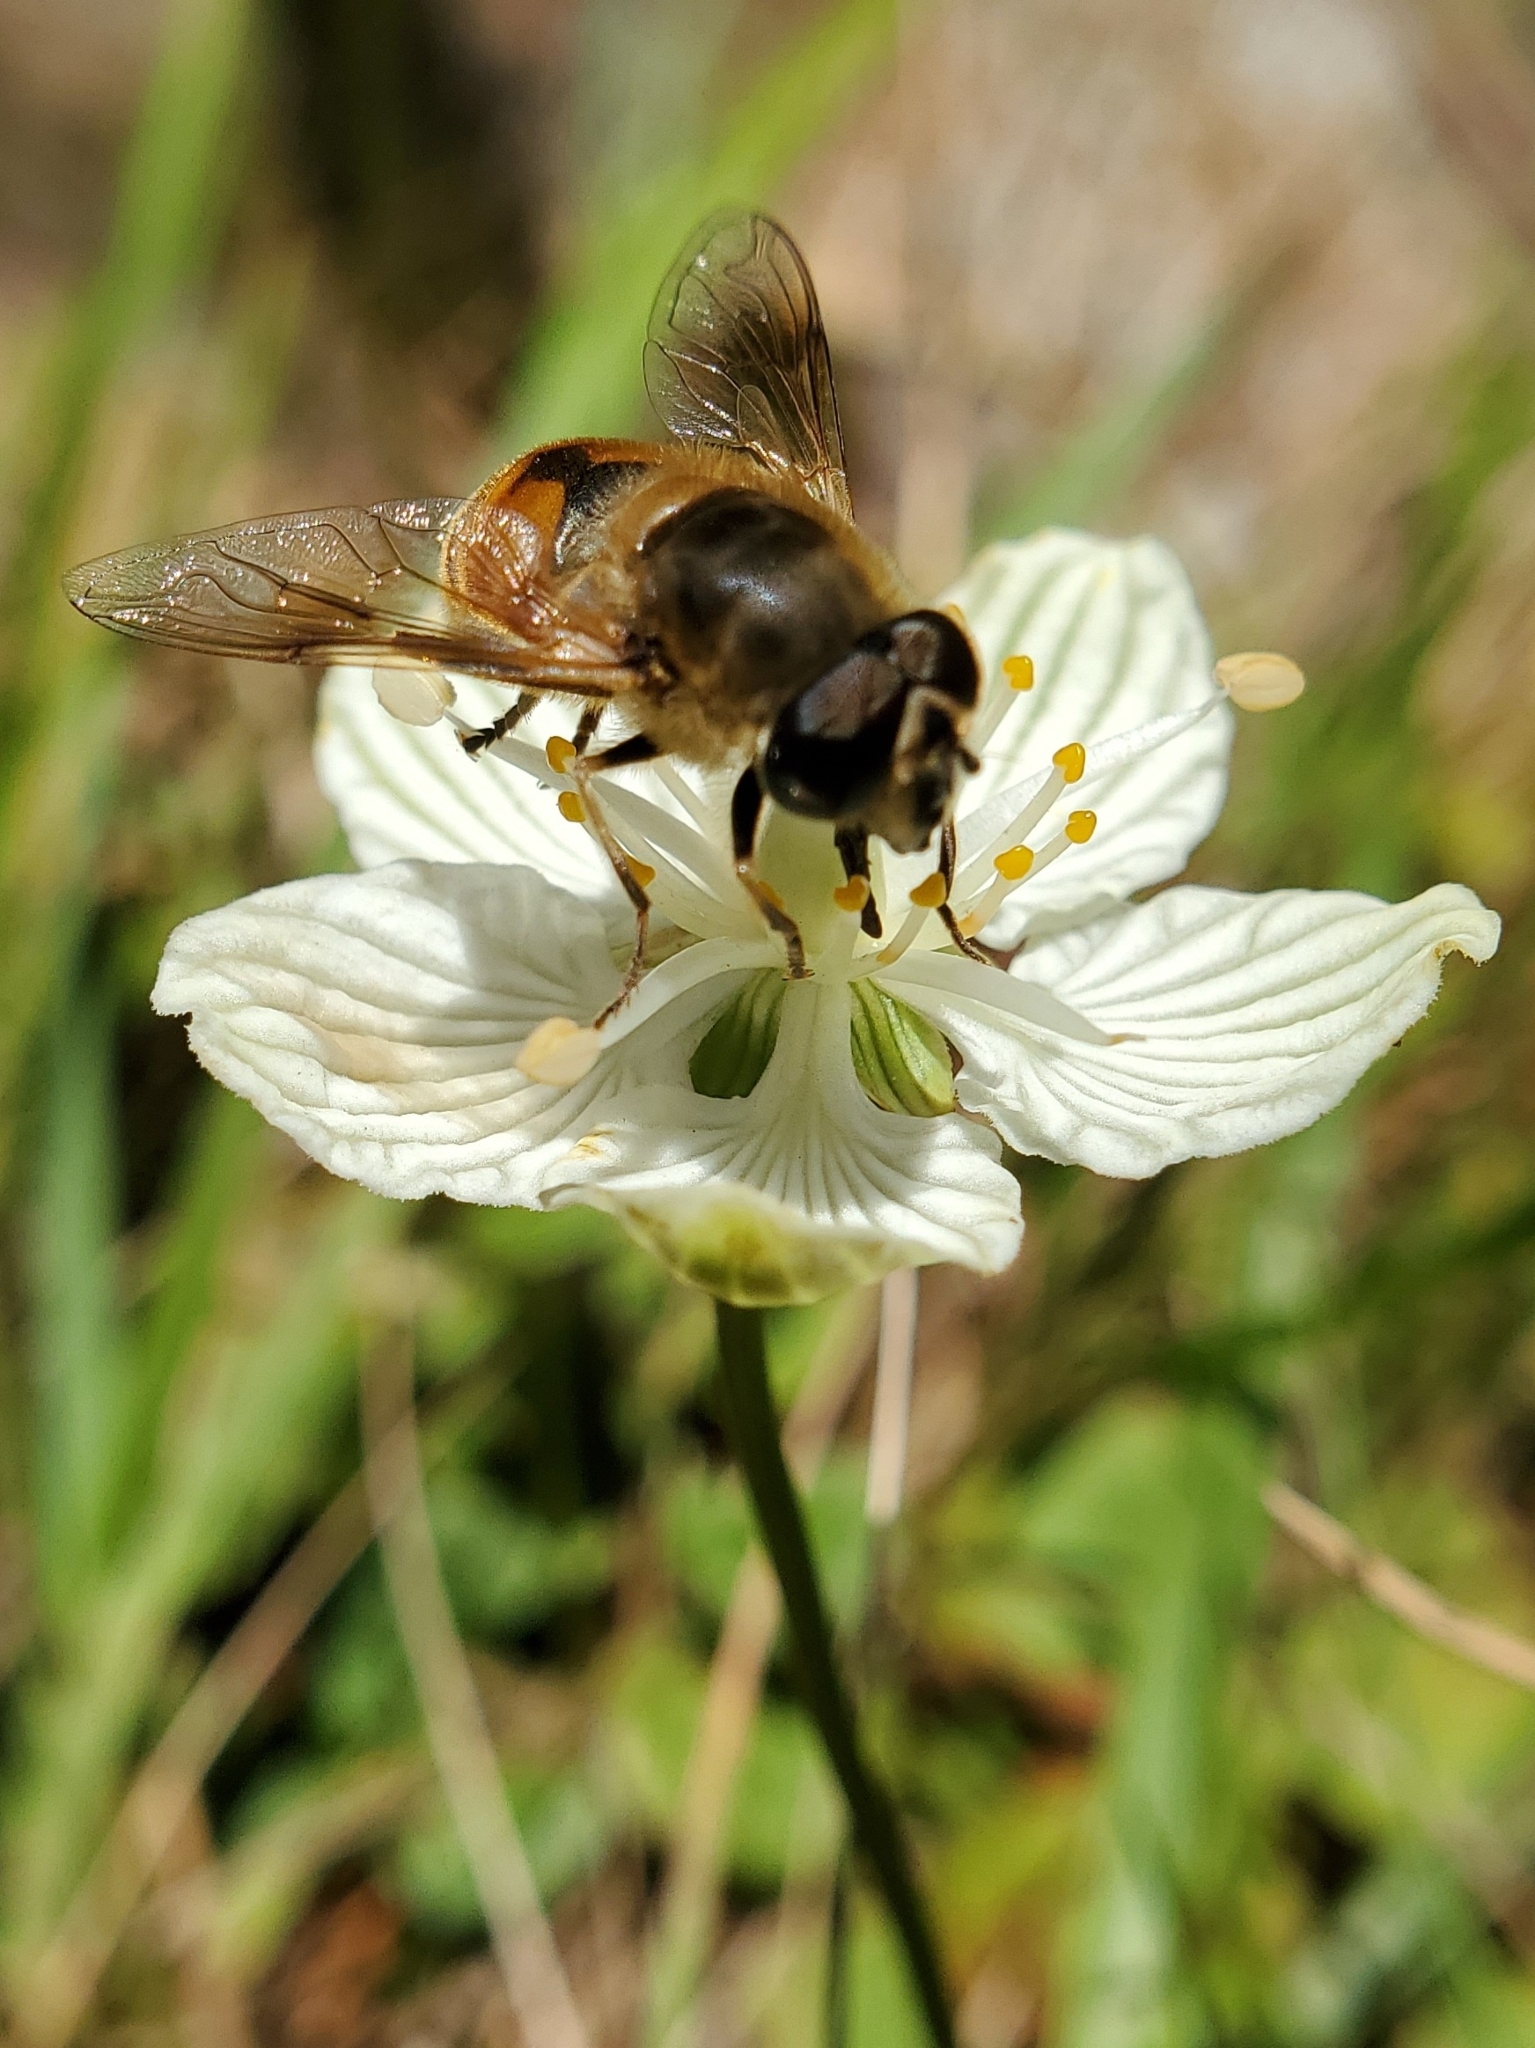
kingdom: Animalia
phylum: Arthropoda
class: Insecta
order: Diptera
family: Syrphidae
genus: Eristalis
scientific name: Eristalis tenax
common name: Drone fly
